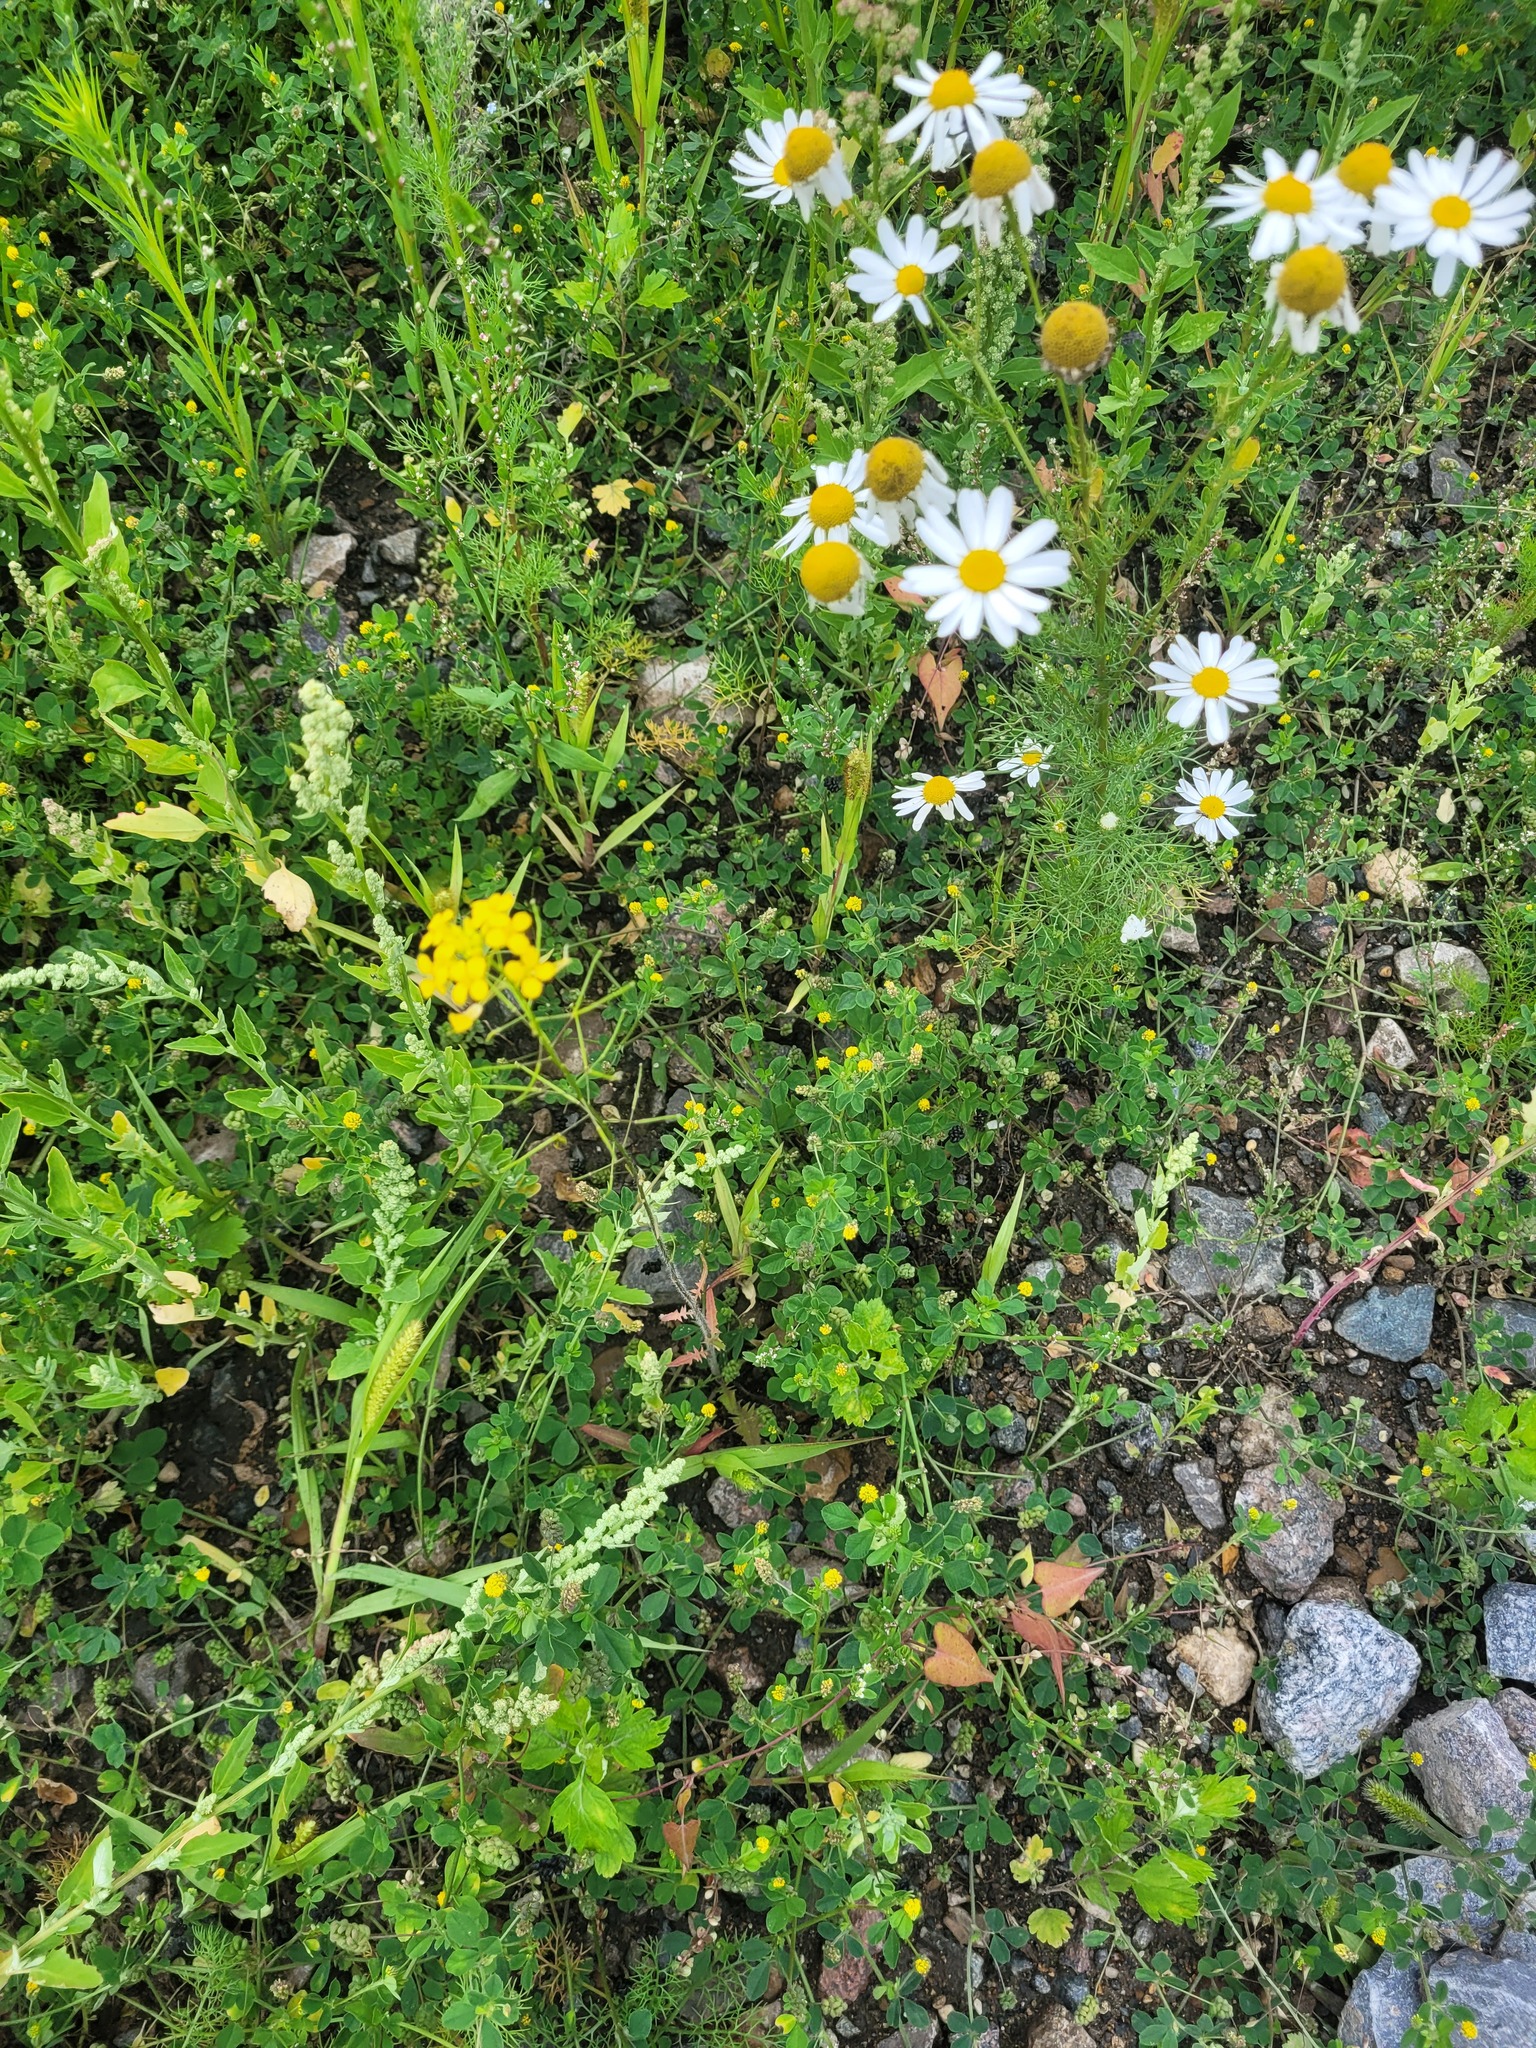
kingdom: Plantae
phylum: Tracheophyta
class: Magnoliopsida
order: Brassicales
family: Brassicaceae
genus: Sisymbrium
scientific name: Sisymbrium loeselii
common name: False london-rocket
